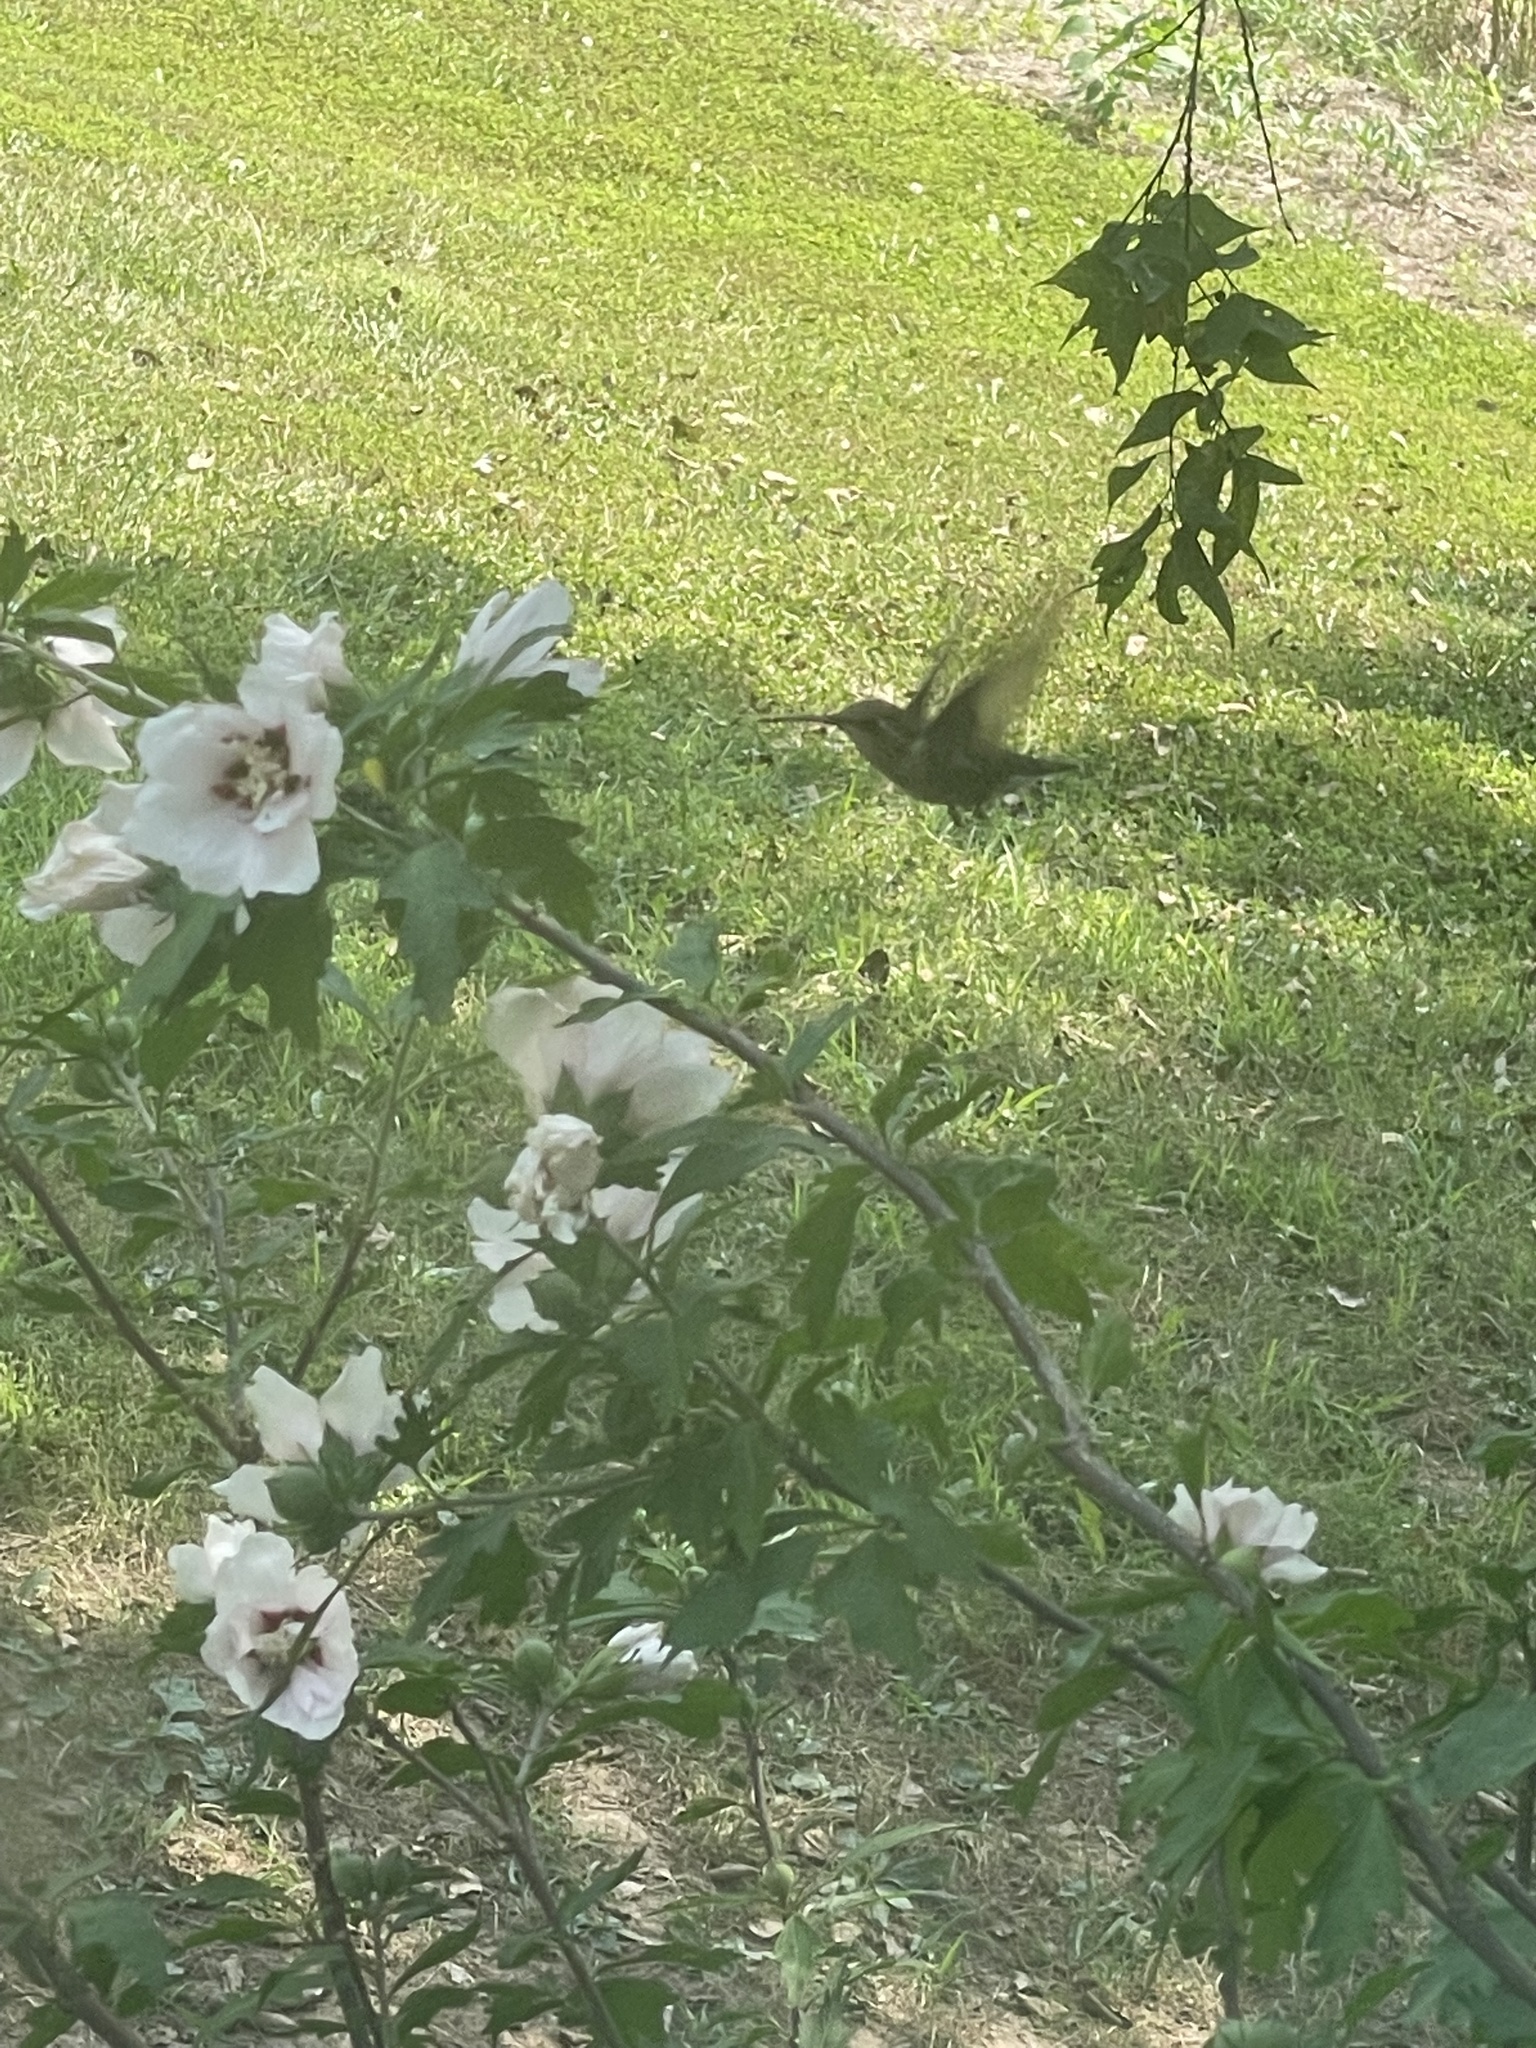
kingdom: Animalia
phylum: Chordata
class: Aves
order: Apodiformes
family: Trochilidae
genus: Archilochus
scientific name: Archilochus colubris
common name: Ruby-throated hummingbird
